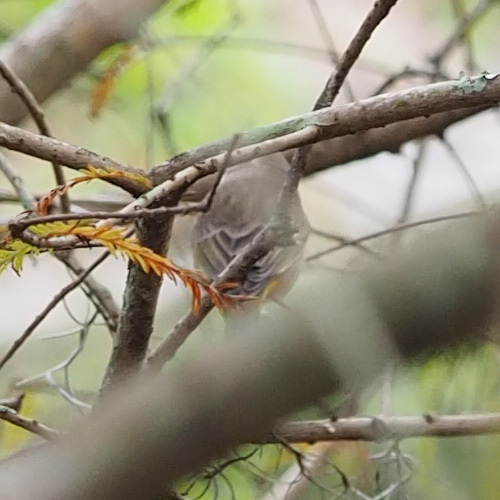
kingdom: Animalia
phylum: Chordata
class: Aves
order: Passeriformes
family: Parulidae
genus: Setophaga
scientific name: Setophaga palmarum
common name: Palm warbler
